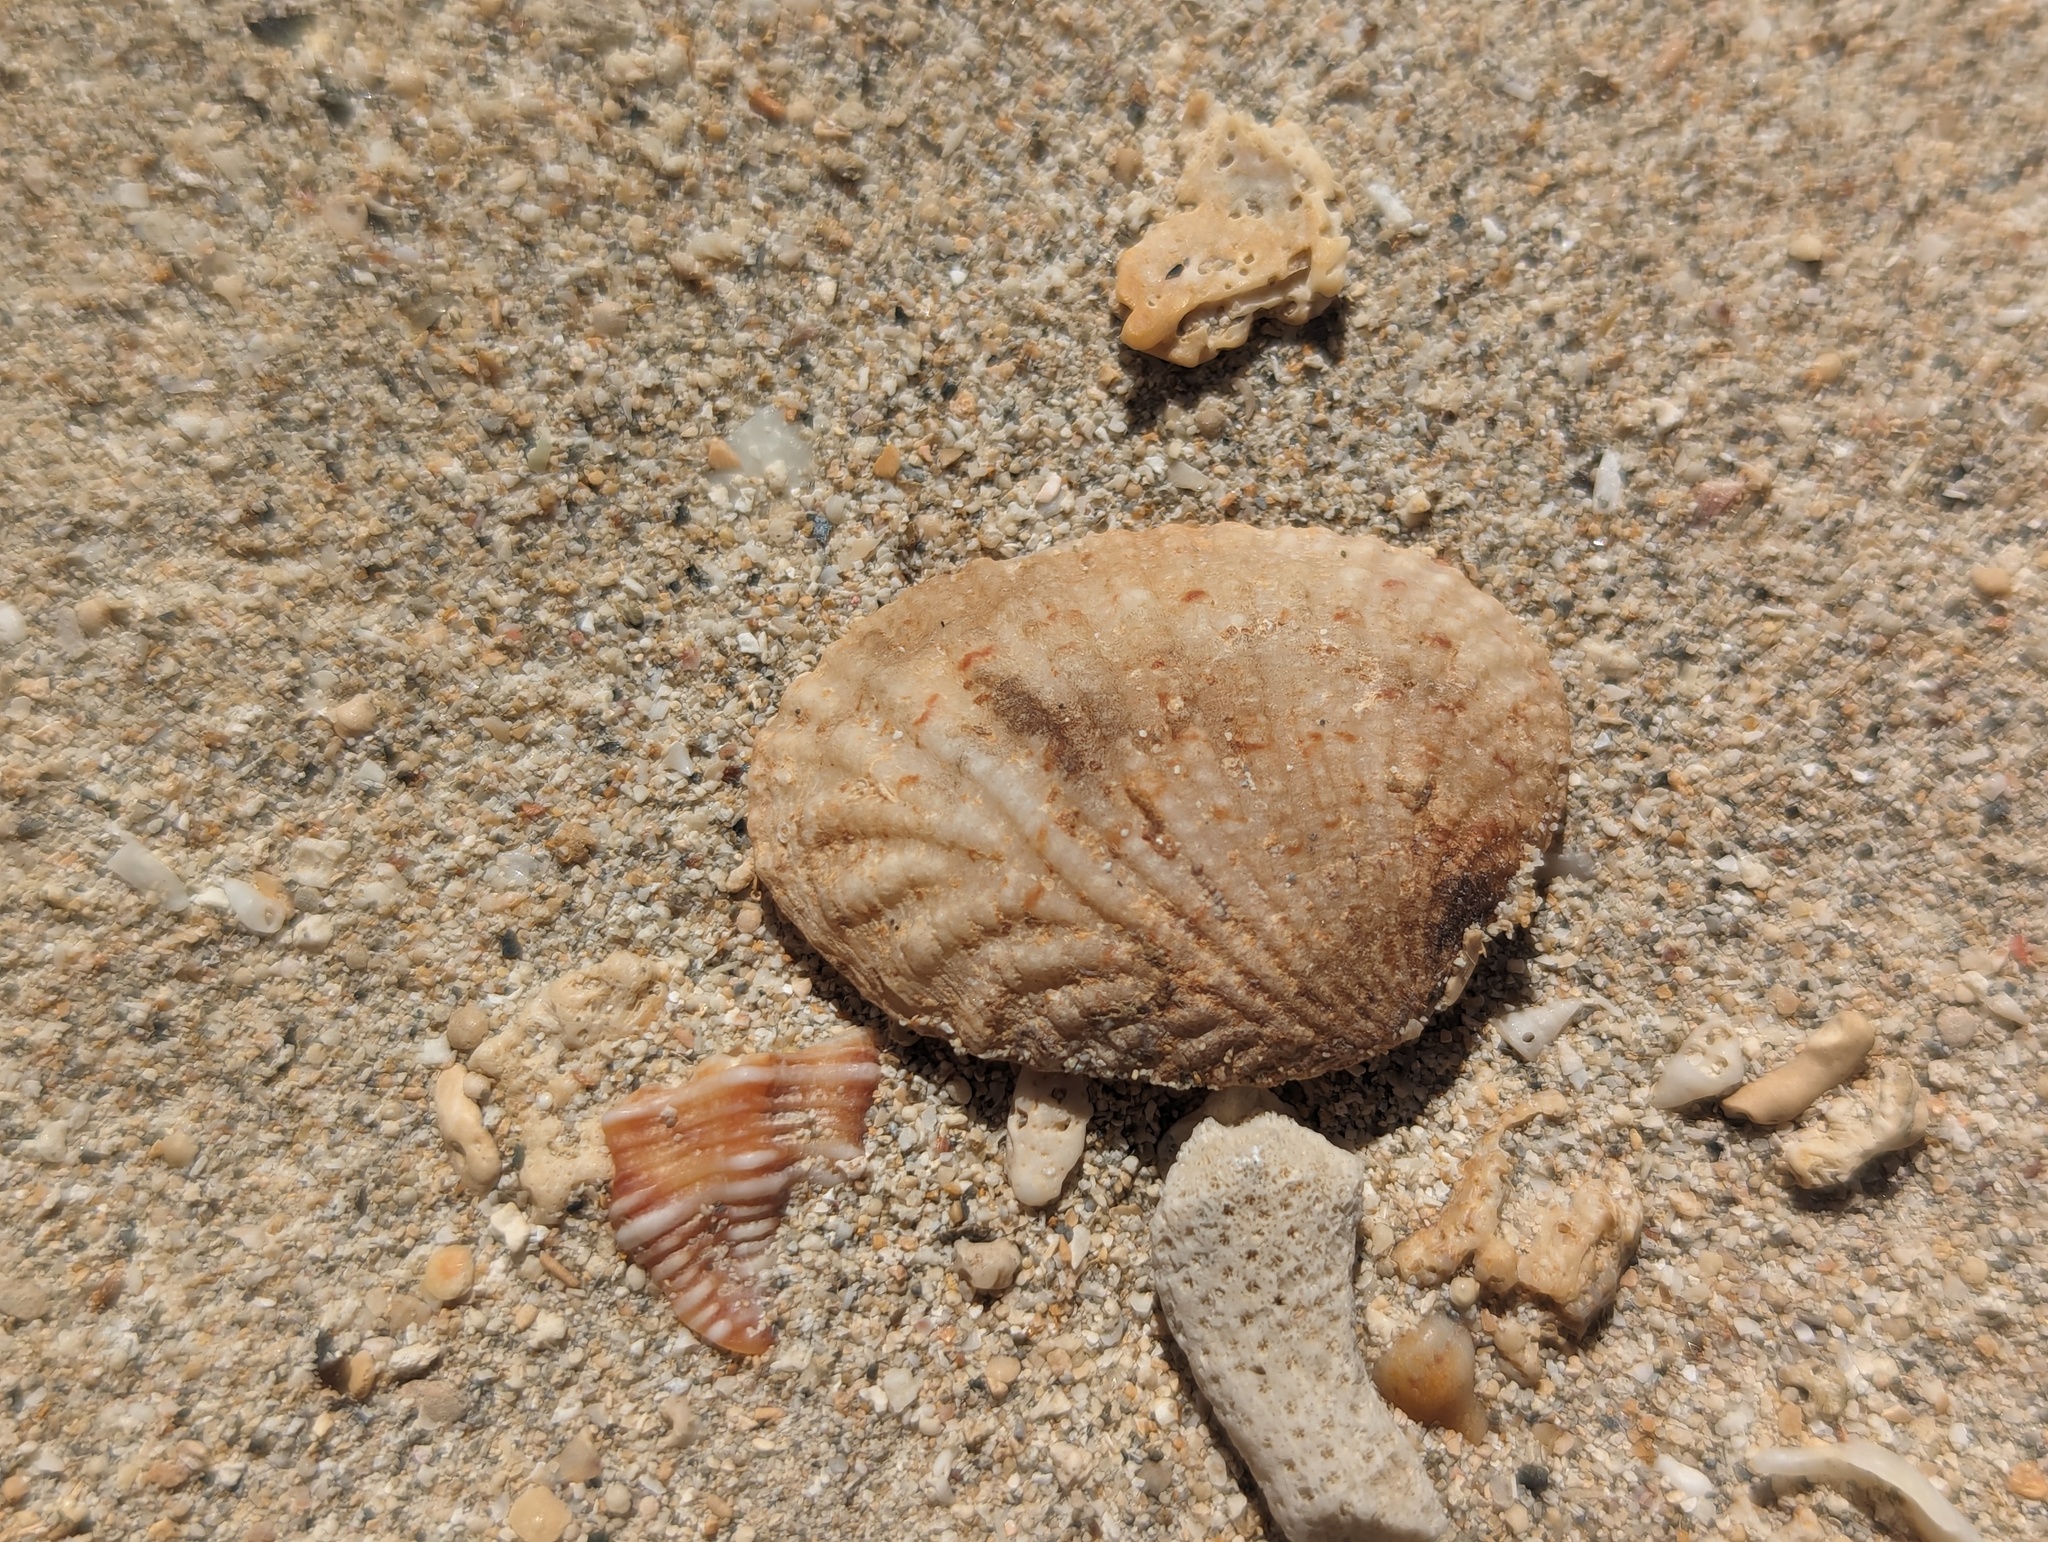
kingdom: Animalia
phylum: Mollusca
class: Bivalvia
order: Venerida
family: Veneridae
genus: Gafrarium
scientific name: Gafrarium pectinatum
